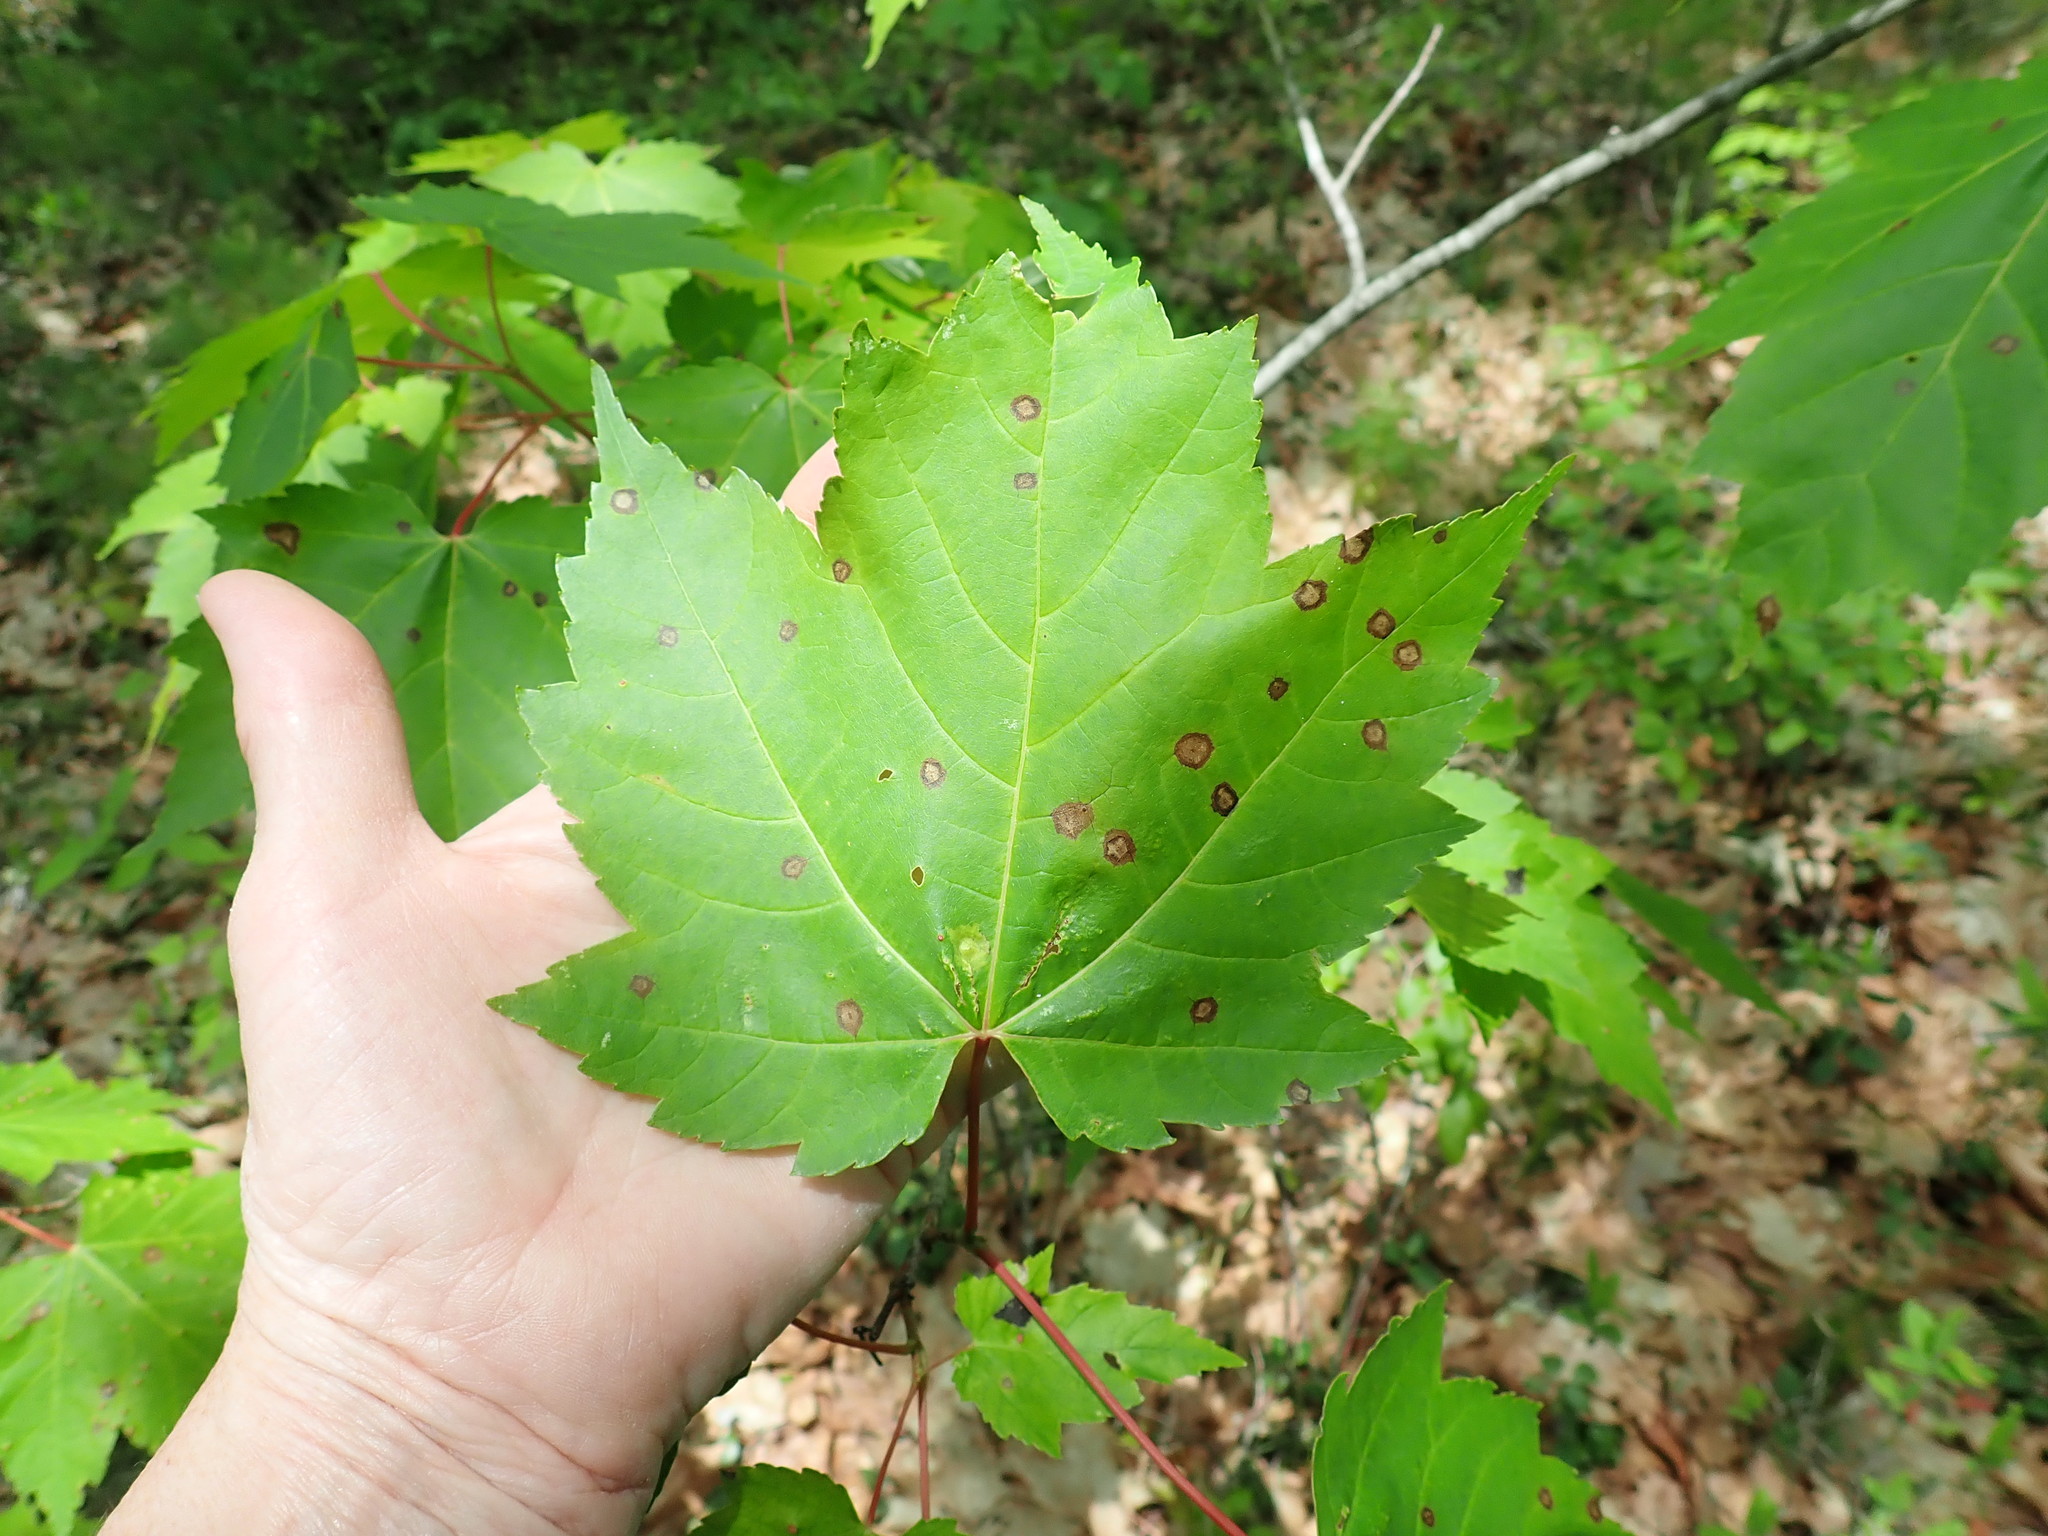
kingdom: Animalia
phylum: Arthropoda
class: Insecta
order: Diptera
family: Cecidomyiidae
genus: Acericecis
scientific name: Acericecis ocellaris
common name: Ocellate gall midge
